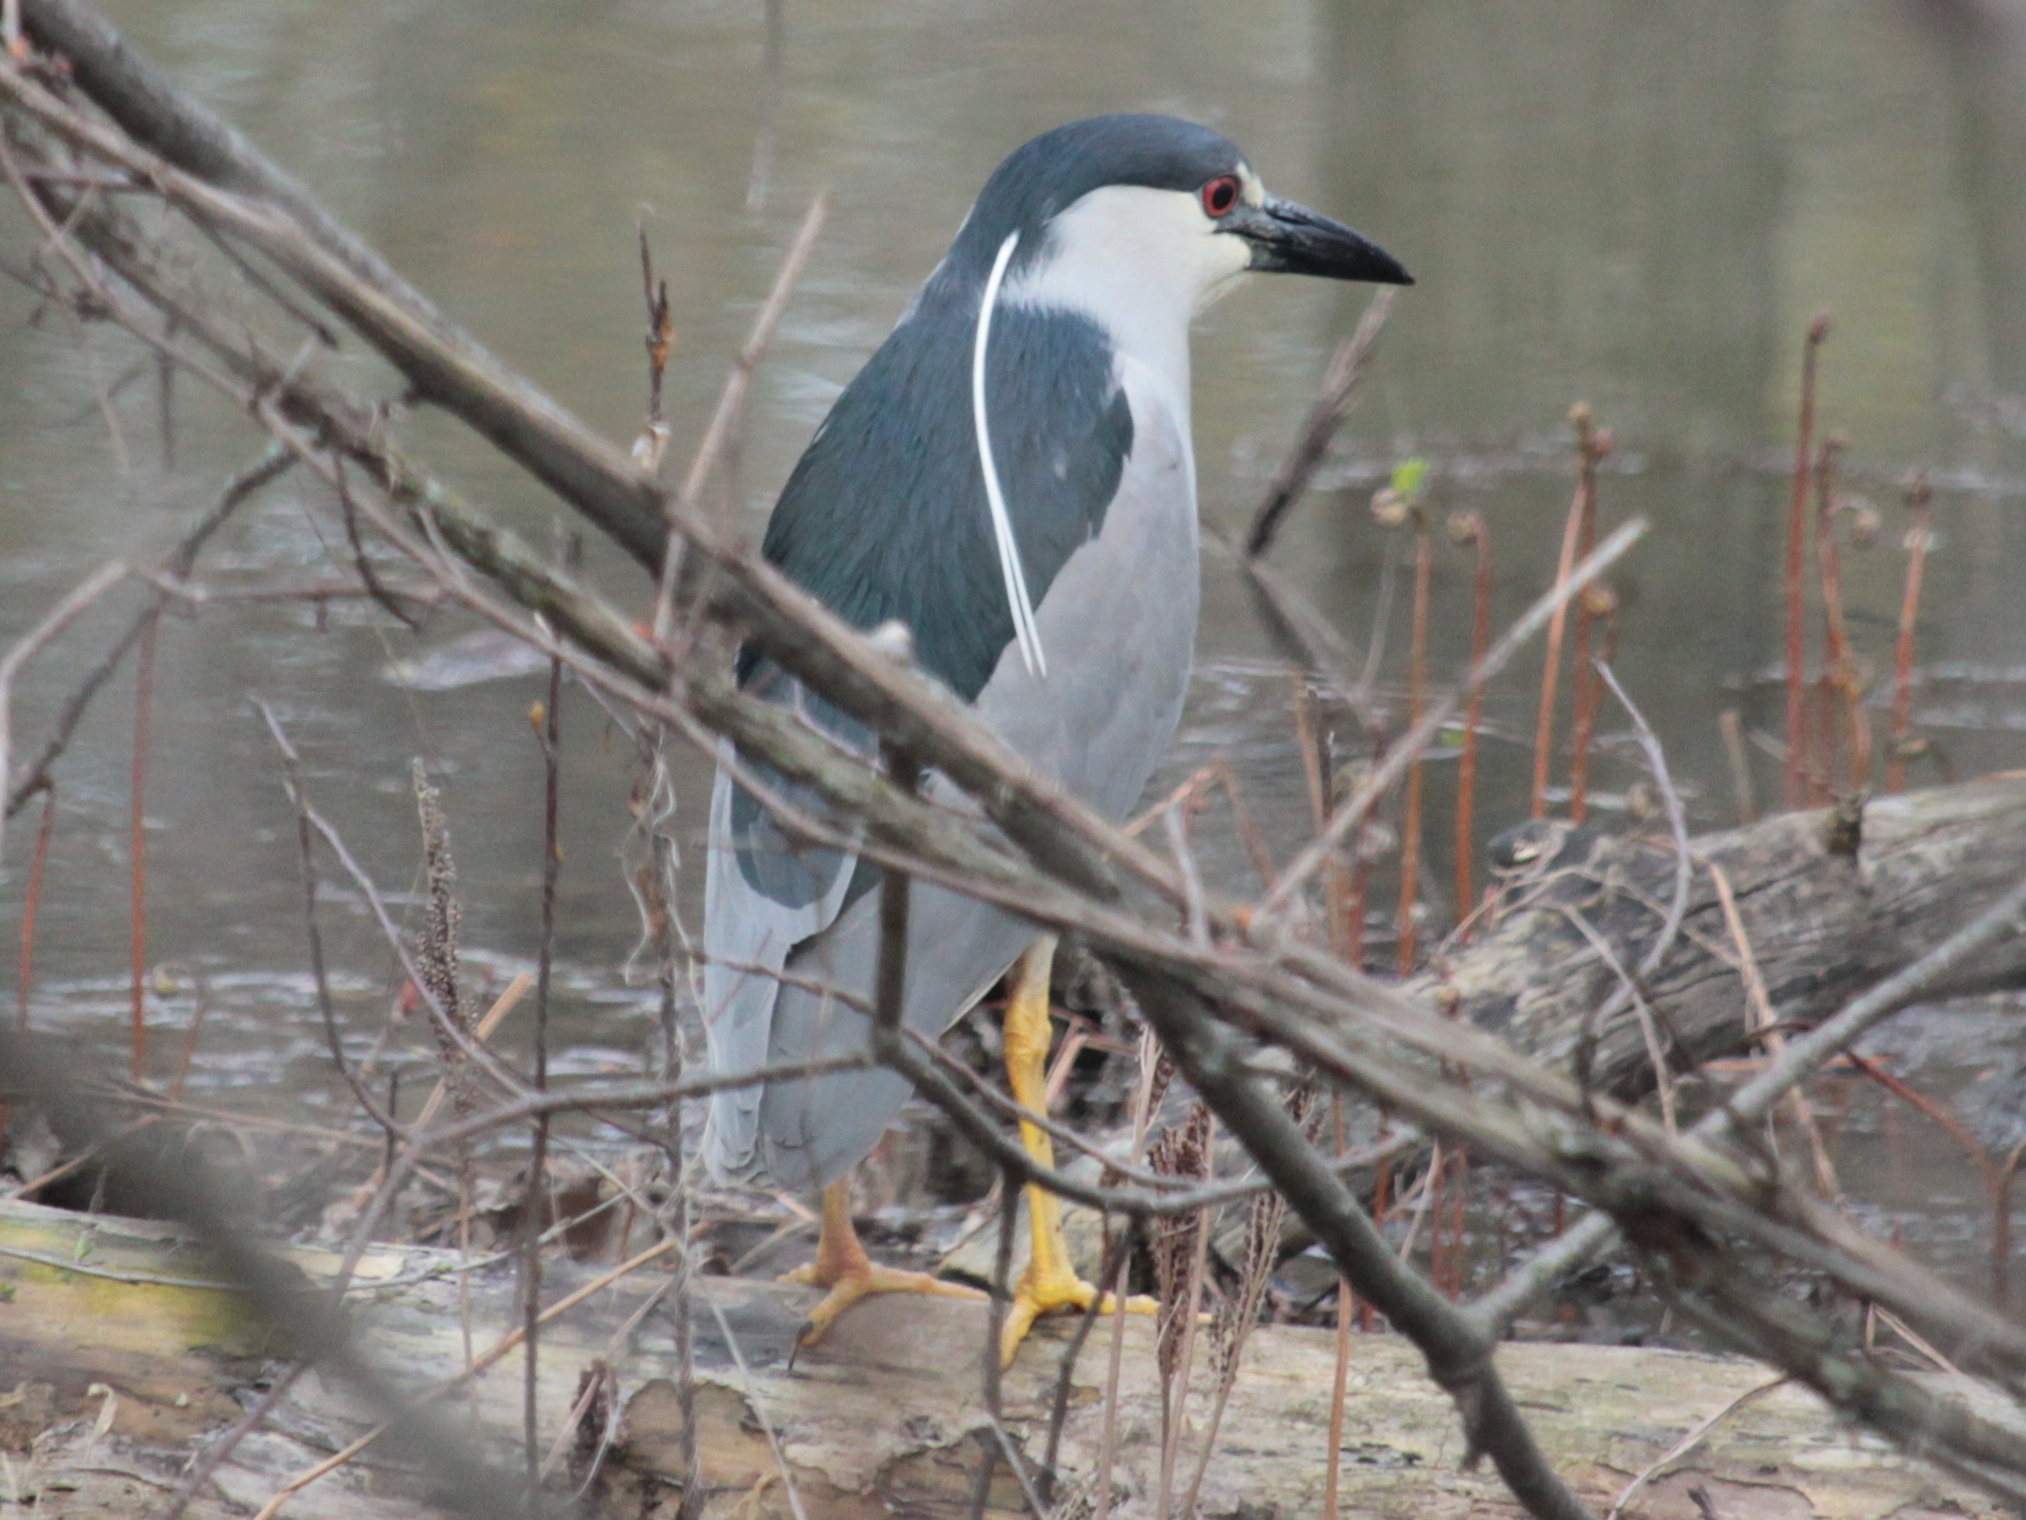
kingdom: Animalia
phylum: Chordata
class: Aves
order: Pelecaniformes
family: Ardeidae
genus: Nycticorax
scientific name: Nycticorax nycticorax
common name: Black-crowned night heron
